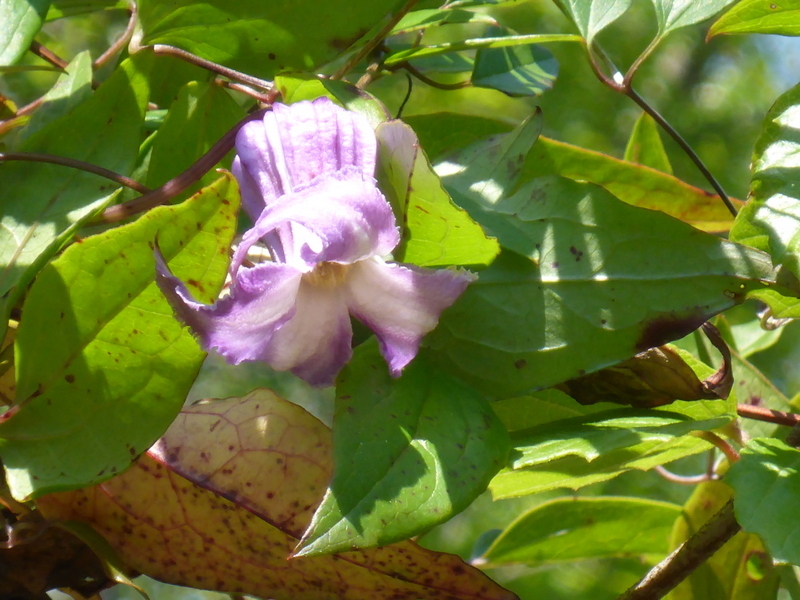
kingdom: Plantae
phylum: Tracheophyta
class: Magnoliopsida
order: Ranunculales
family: Ranunculaceae
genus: Clematis
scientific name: Clematis crispa
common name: Curly clematis
